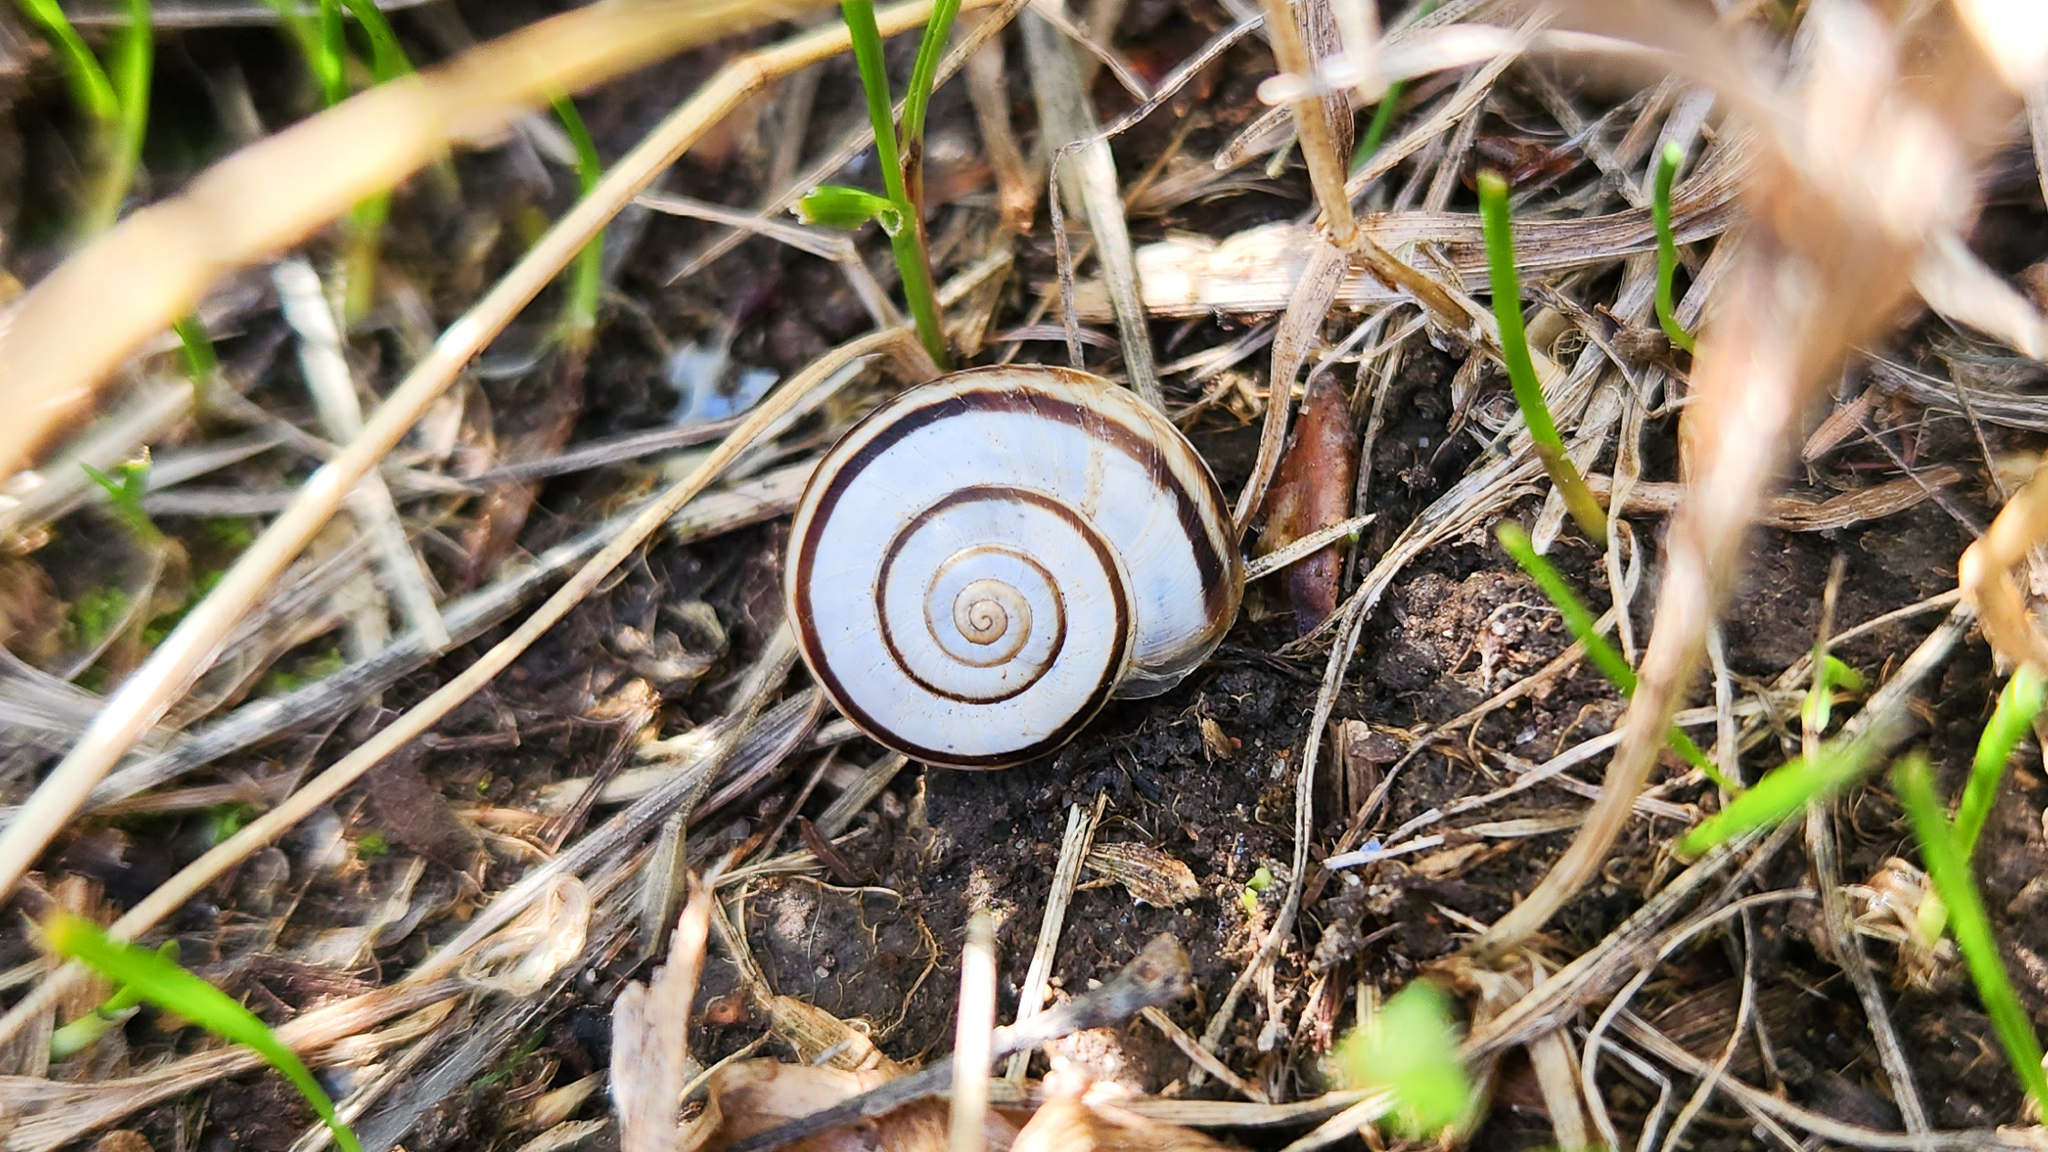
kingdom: Animalia
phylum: Mollusca
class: Gastropoda
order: Stylommatophora
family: Geomitridae
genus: Xerolenta
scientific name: Xerolenta obvia
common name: White heath snail
